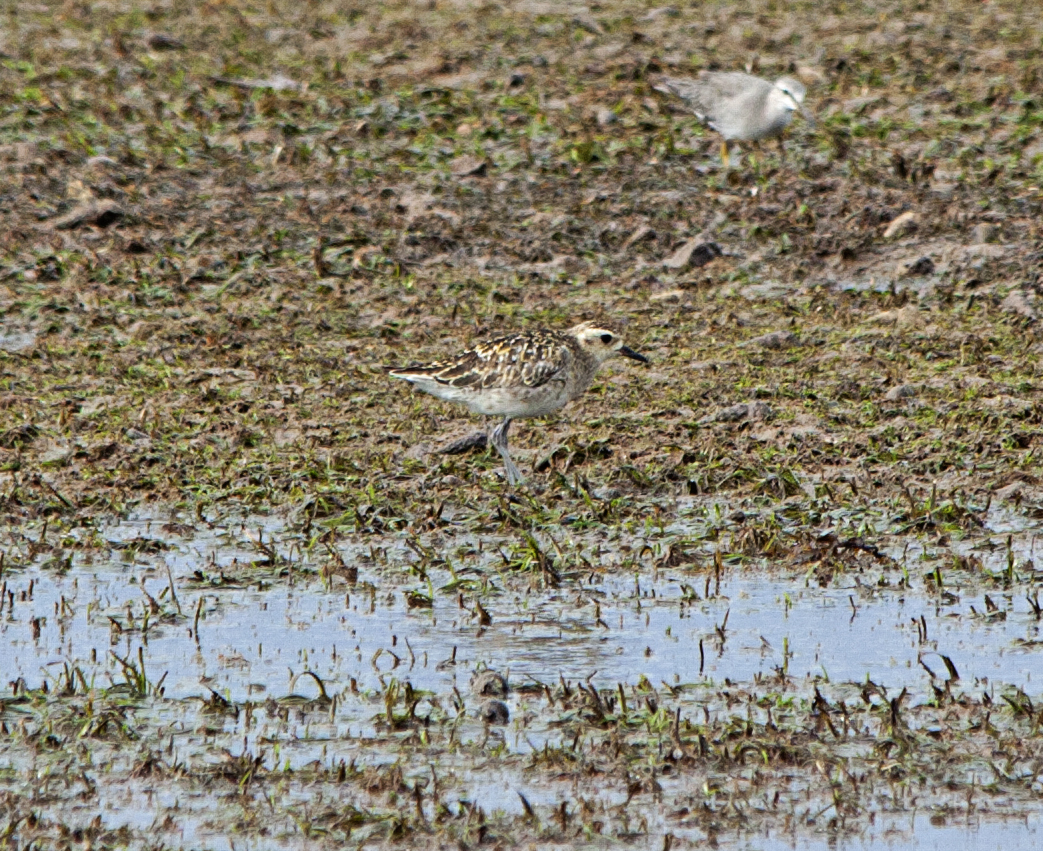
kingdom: Animalia
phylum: Chordata
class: Aves
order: Charadriiformes
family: Charadriidae
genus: Pluvialis
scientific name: Pluvialis fulva
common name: Pacific golden plover
